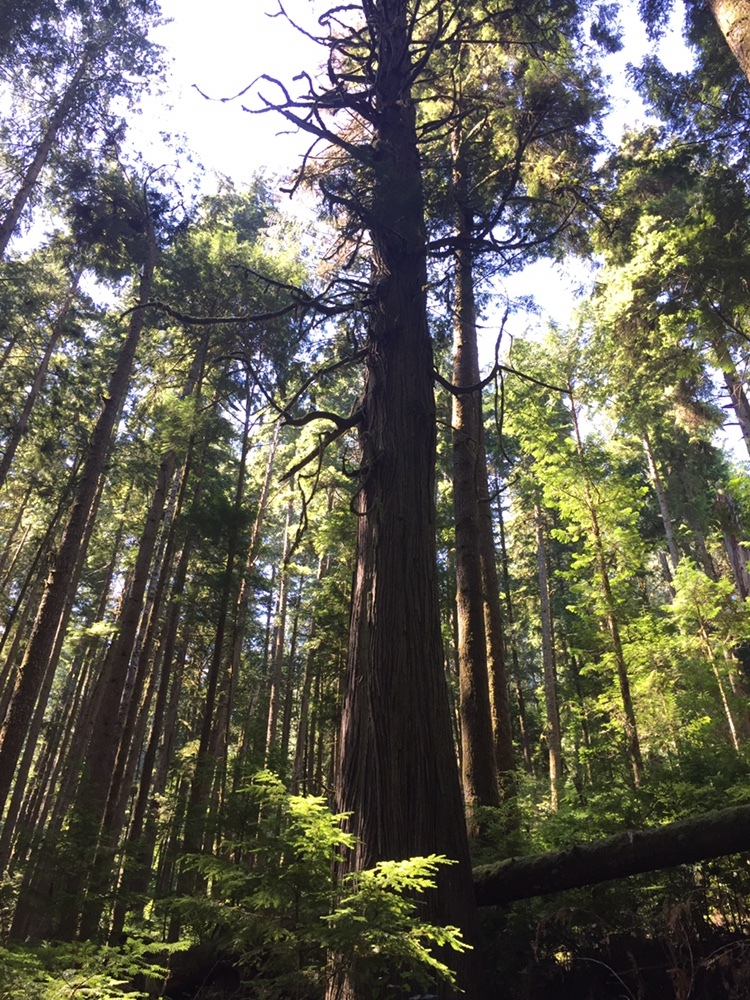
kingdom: Plantae
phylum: Tracheophyta
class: Pinopsida
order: Pinales
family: Cupressaceae
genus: Thuja
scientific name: Thuja plicata
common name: Western red-cedar
